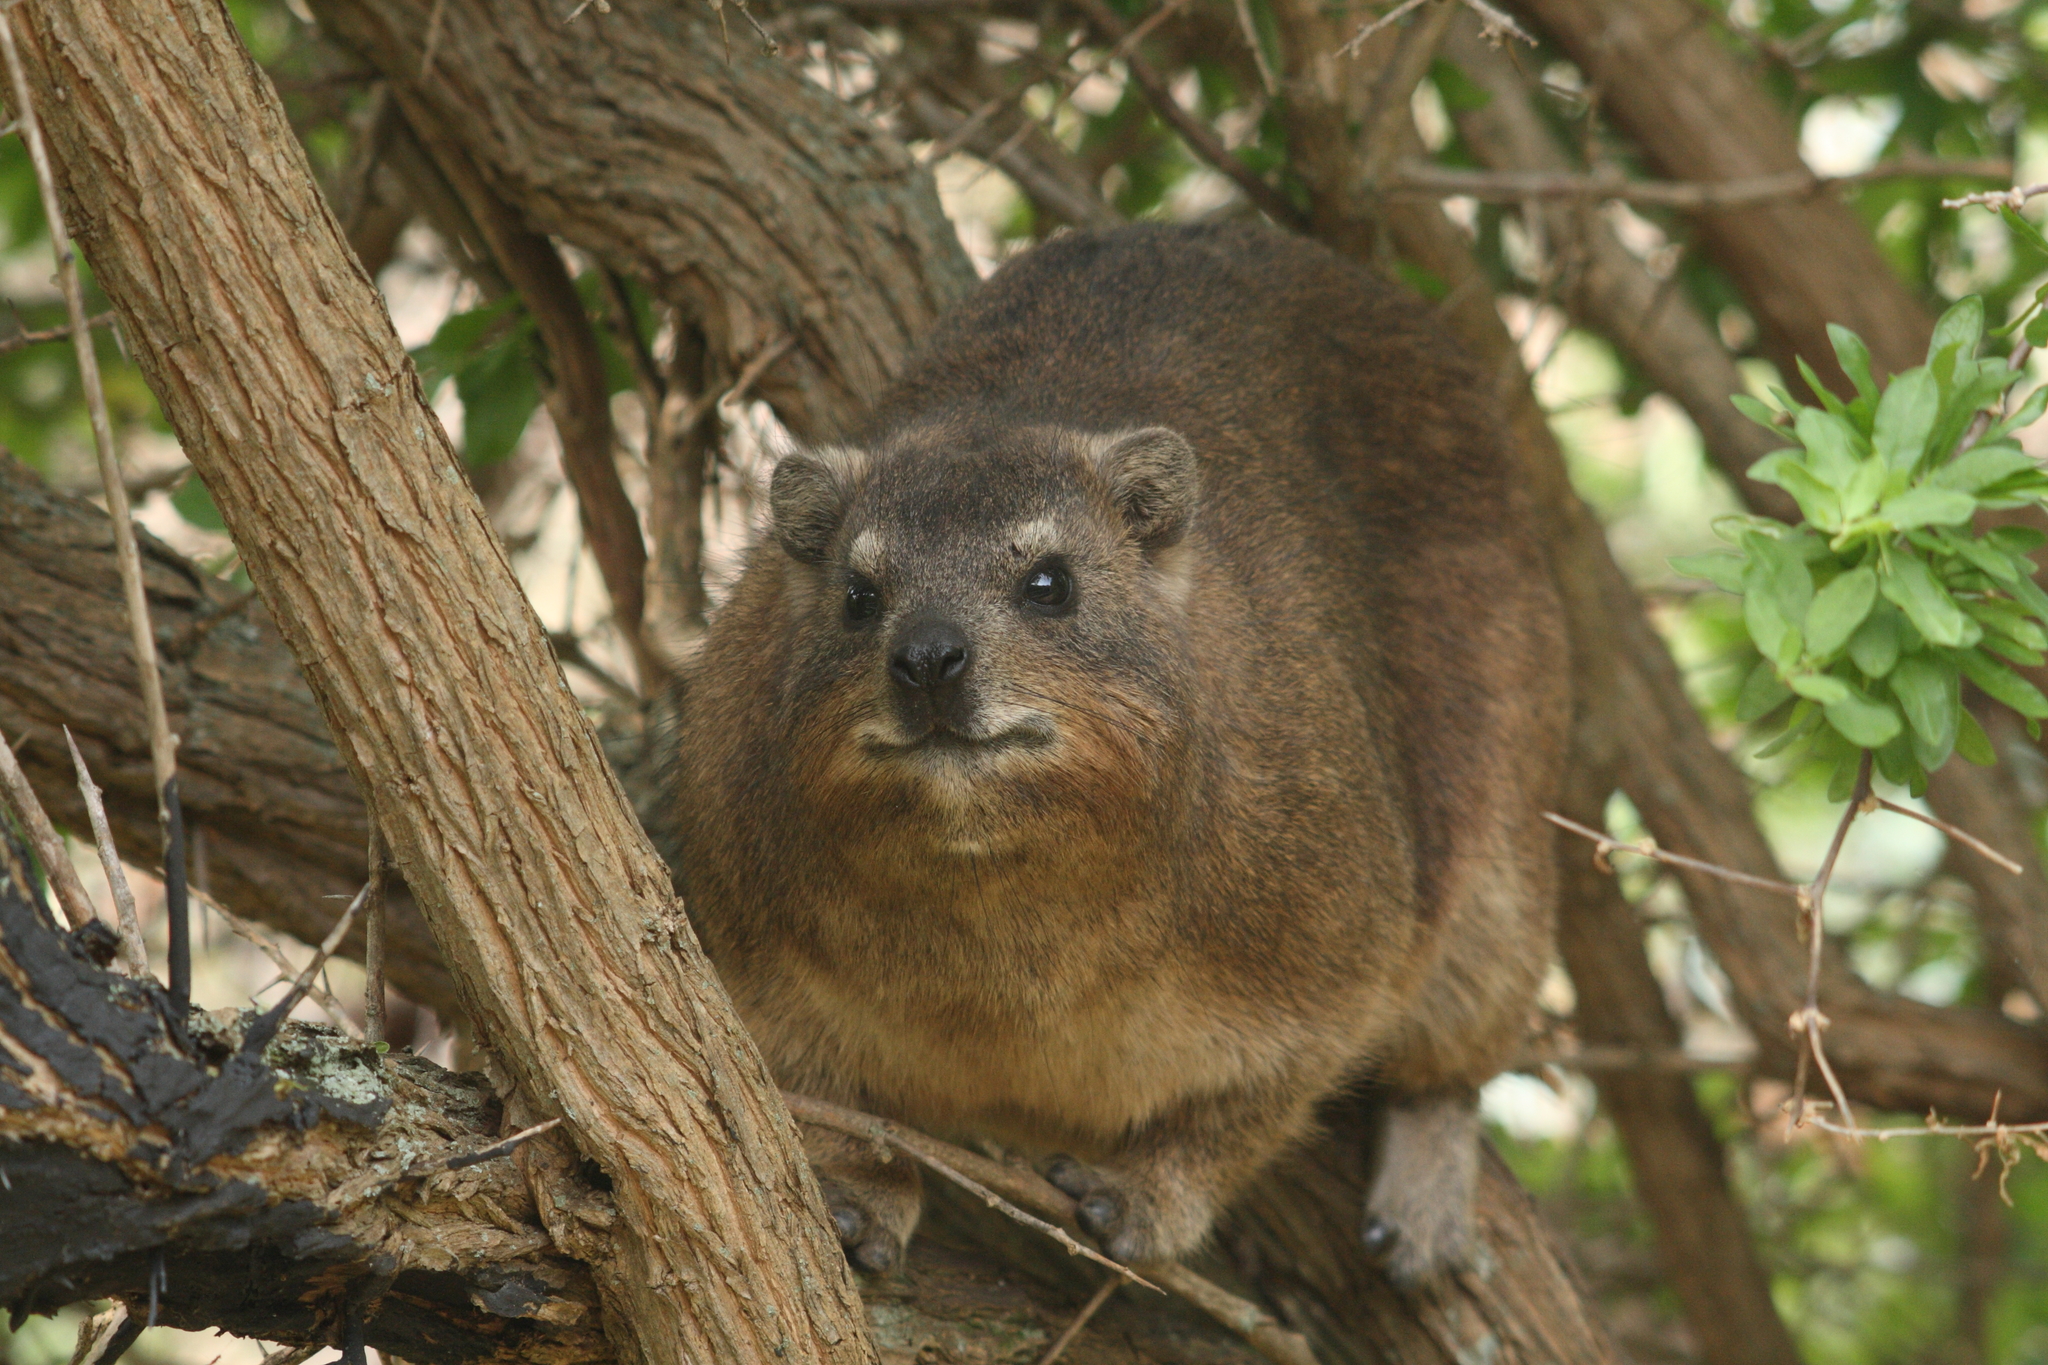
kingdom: Animalia
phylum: Chordata
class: Mammalia
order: Hyracoidea
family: Procaviidae
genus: Procavia
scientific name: Procavia capensis
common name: Rock hyrax
